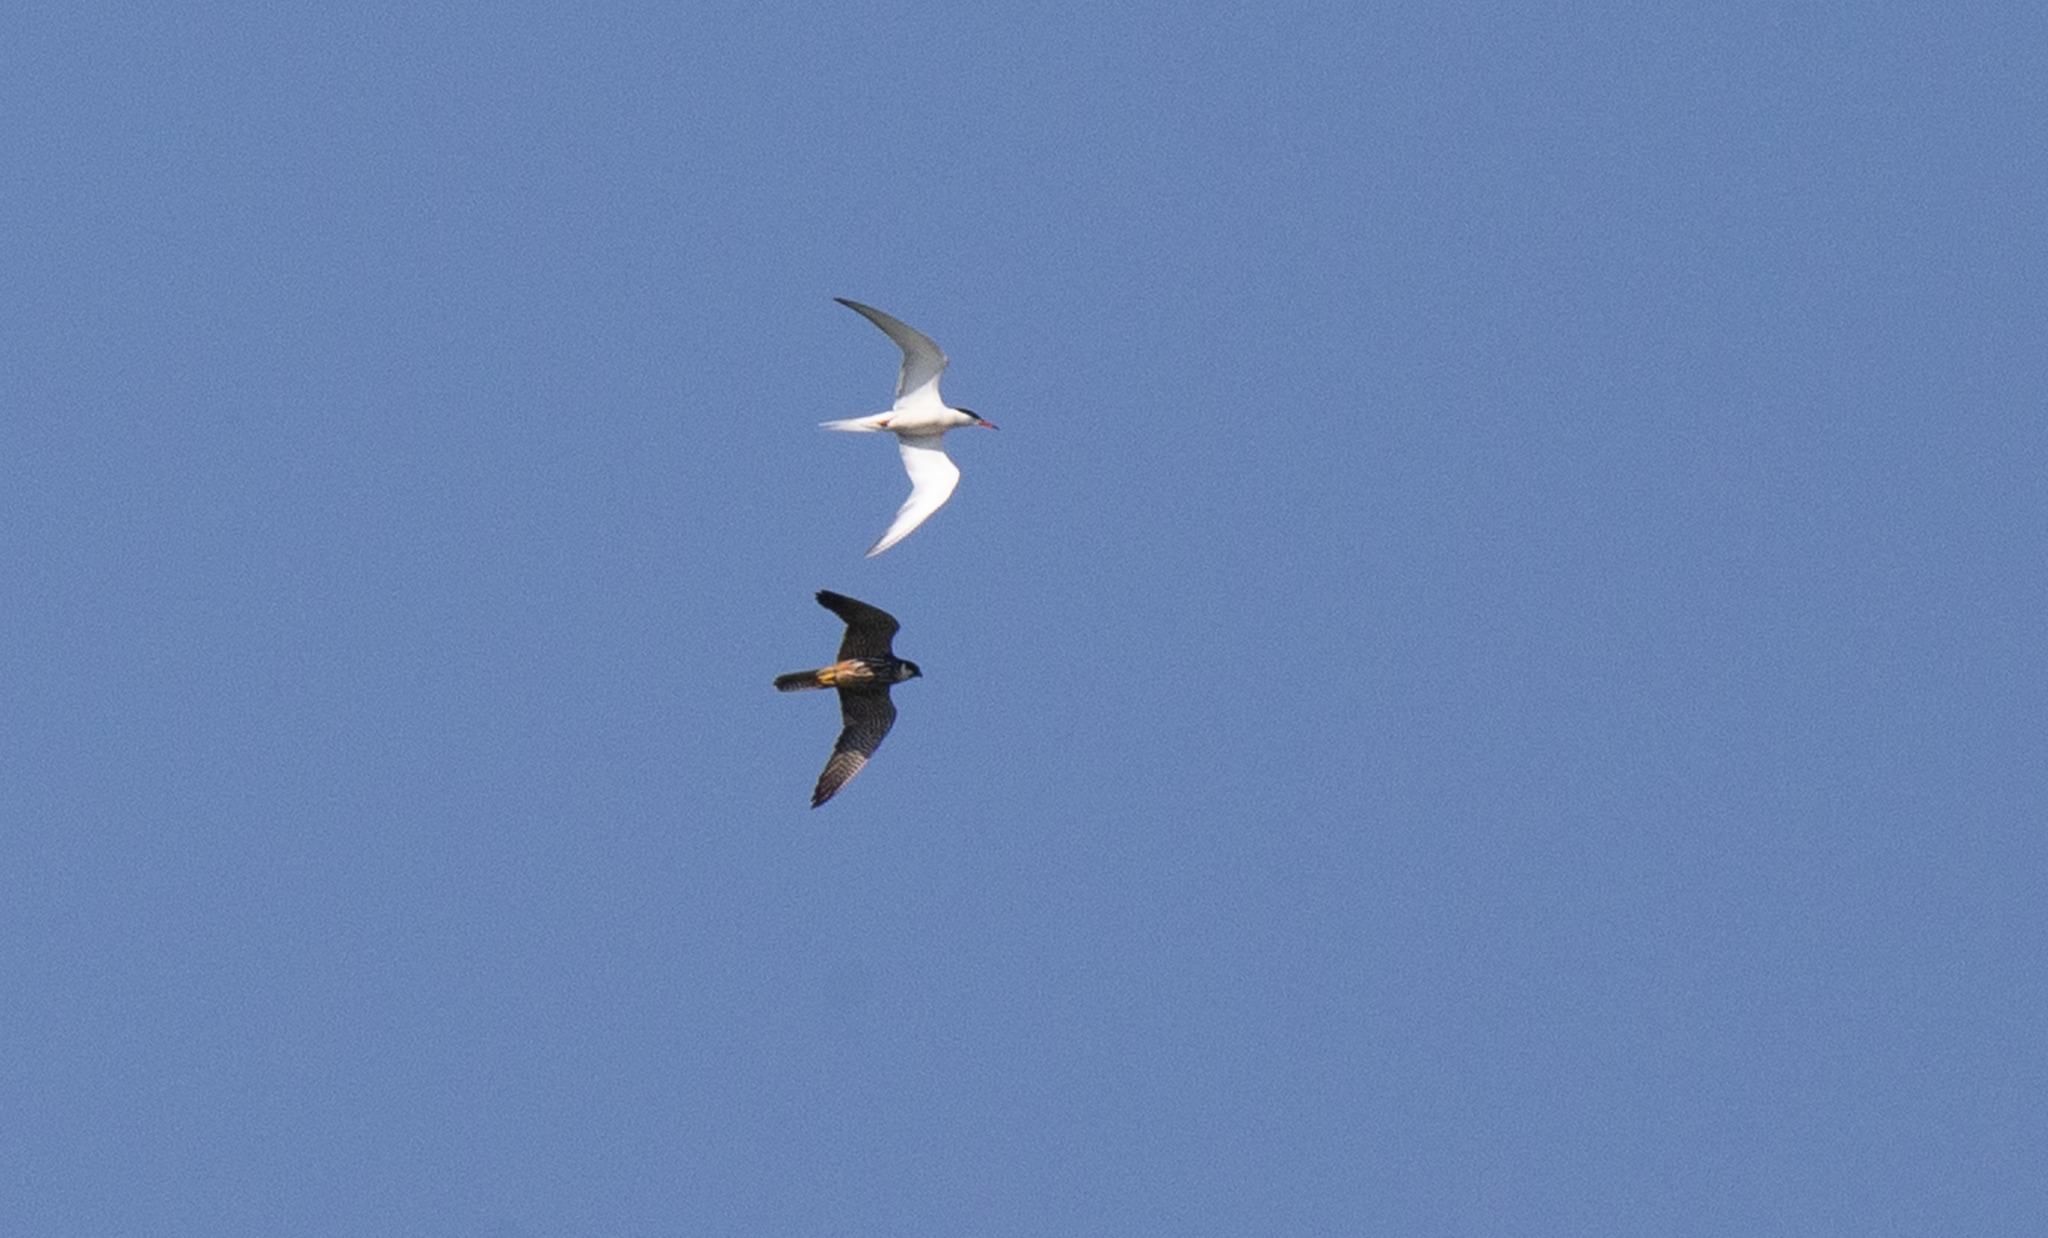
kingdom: Animalia
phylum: Chordata
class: Aves
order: Falconiformes
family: Falconidae
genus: Falco
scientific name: Falco subbuteo
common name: Eurasian hobby
